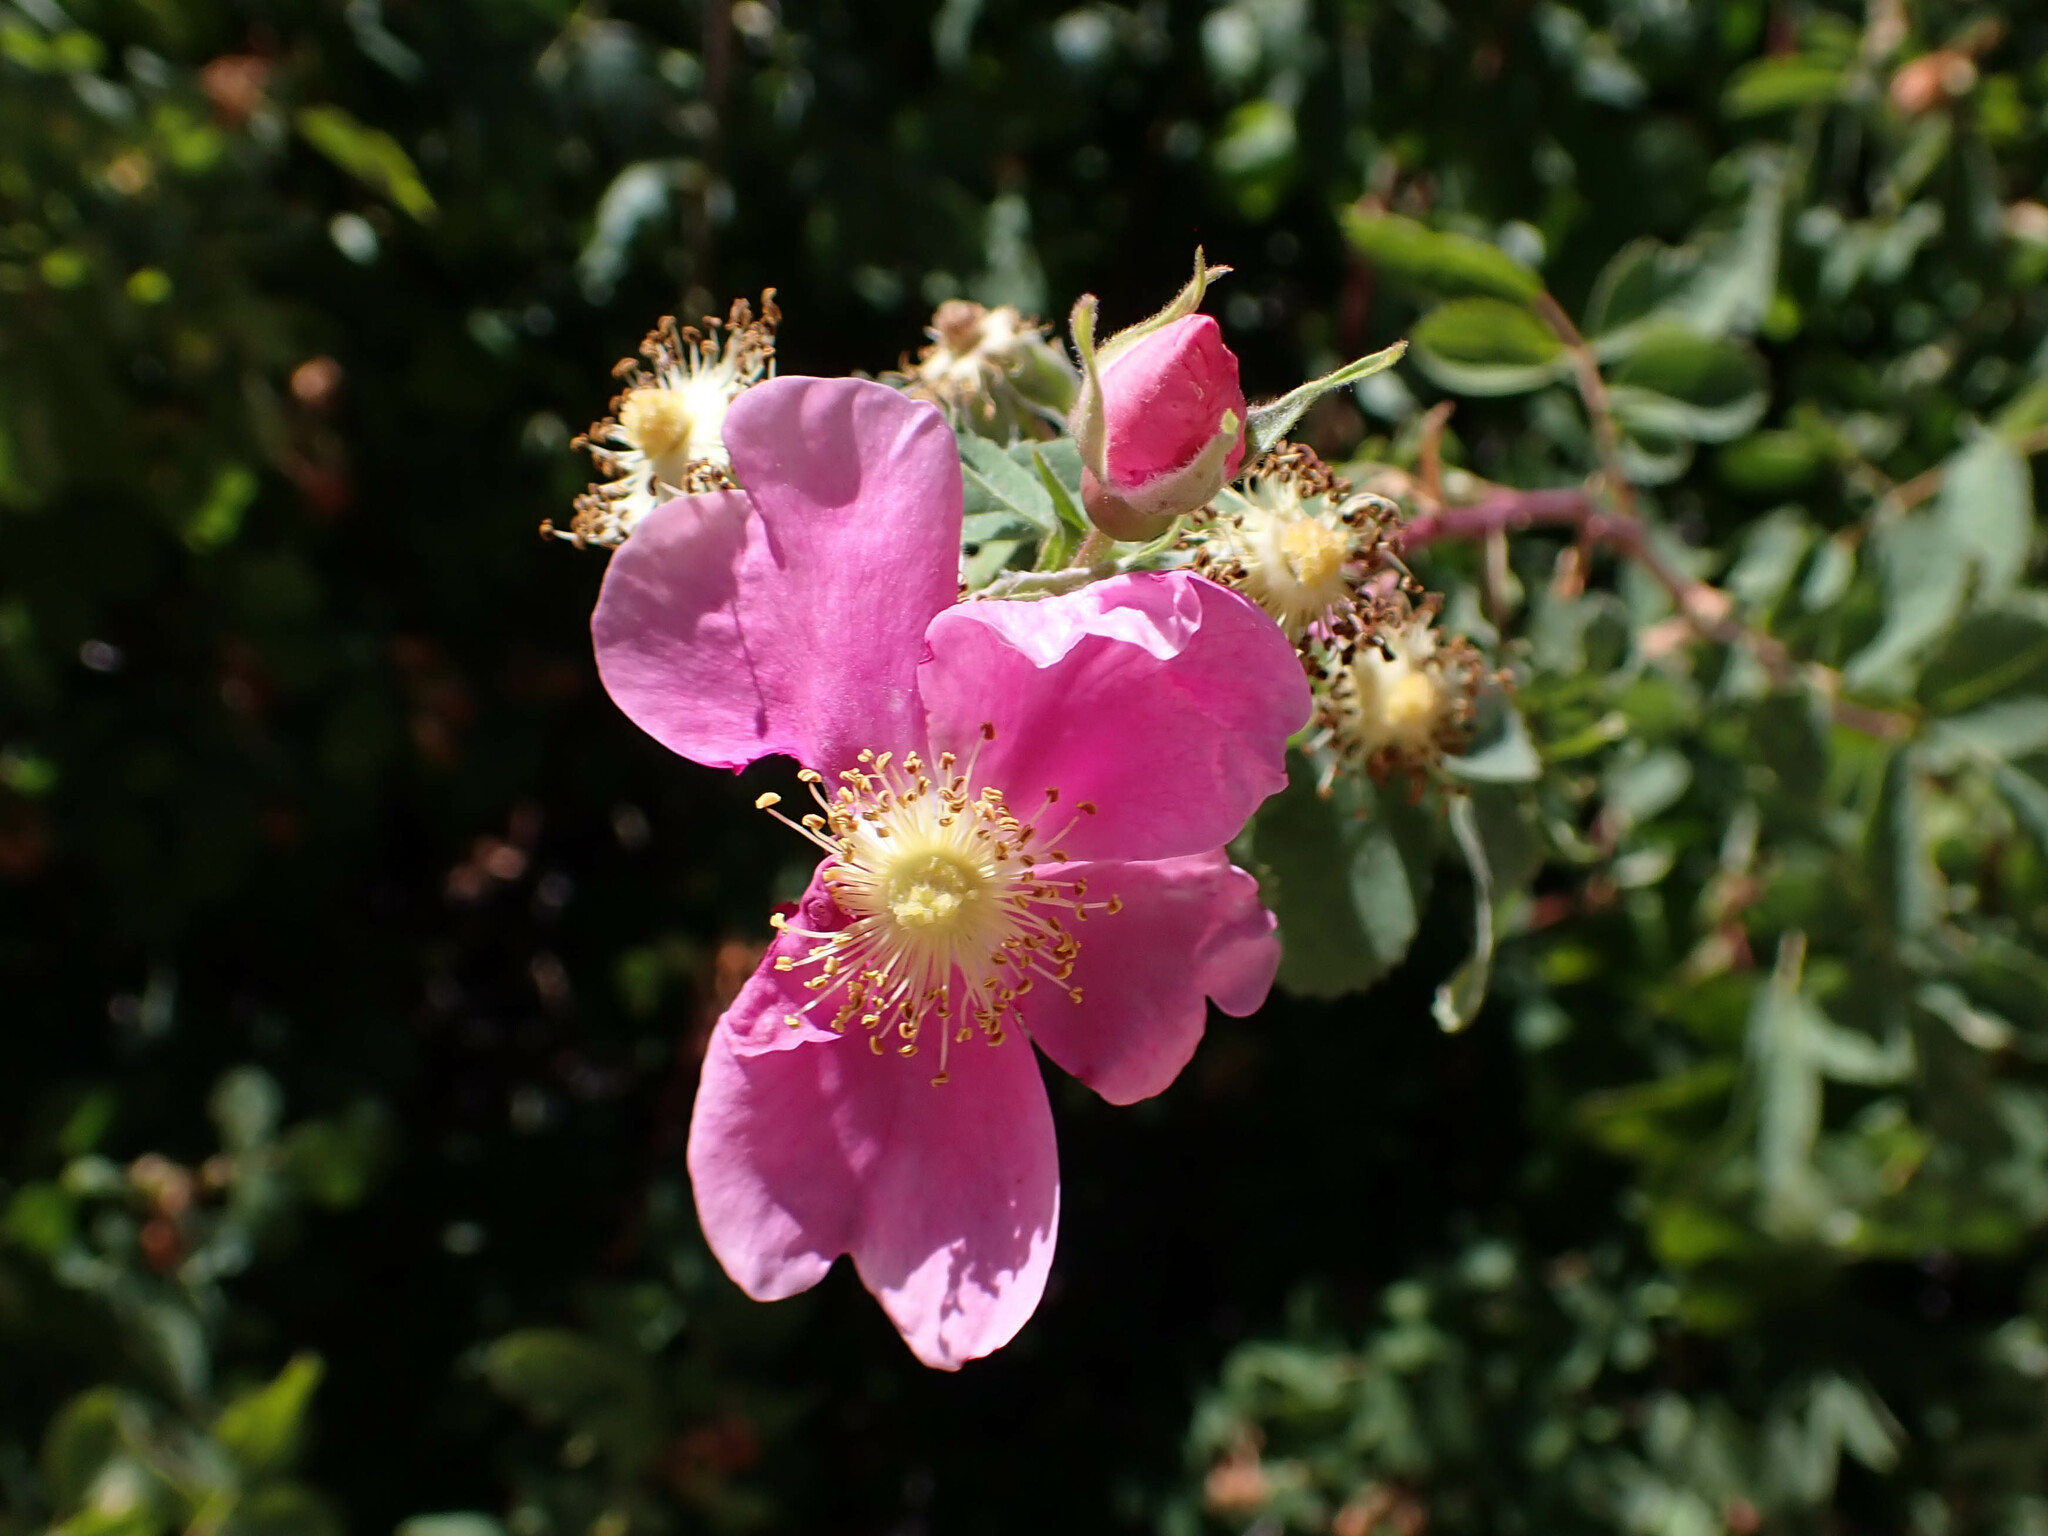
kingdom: Plantae
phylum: Tracheophyta
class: Magnoliopsida
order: Rosales
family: Rosaceae
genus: Rosa
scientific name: Rosa californica
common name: California rose
